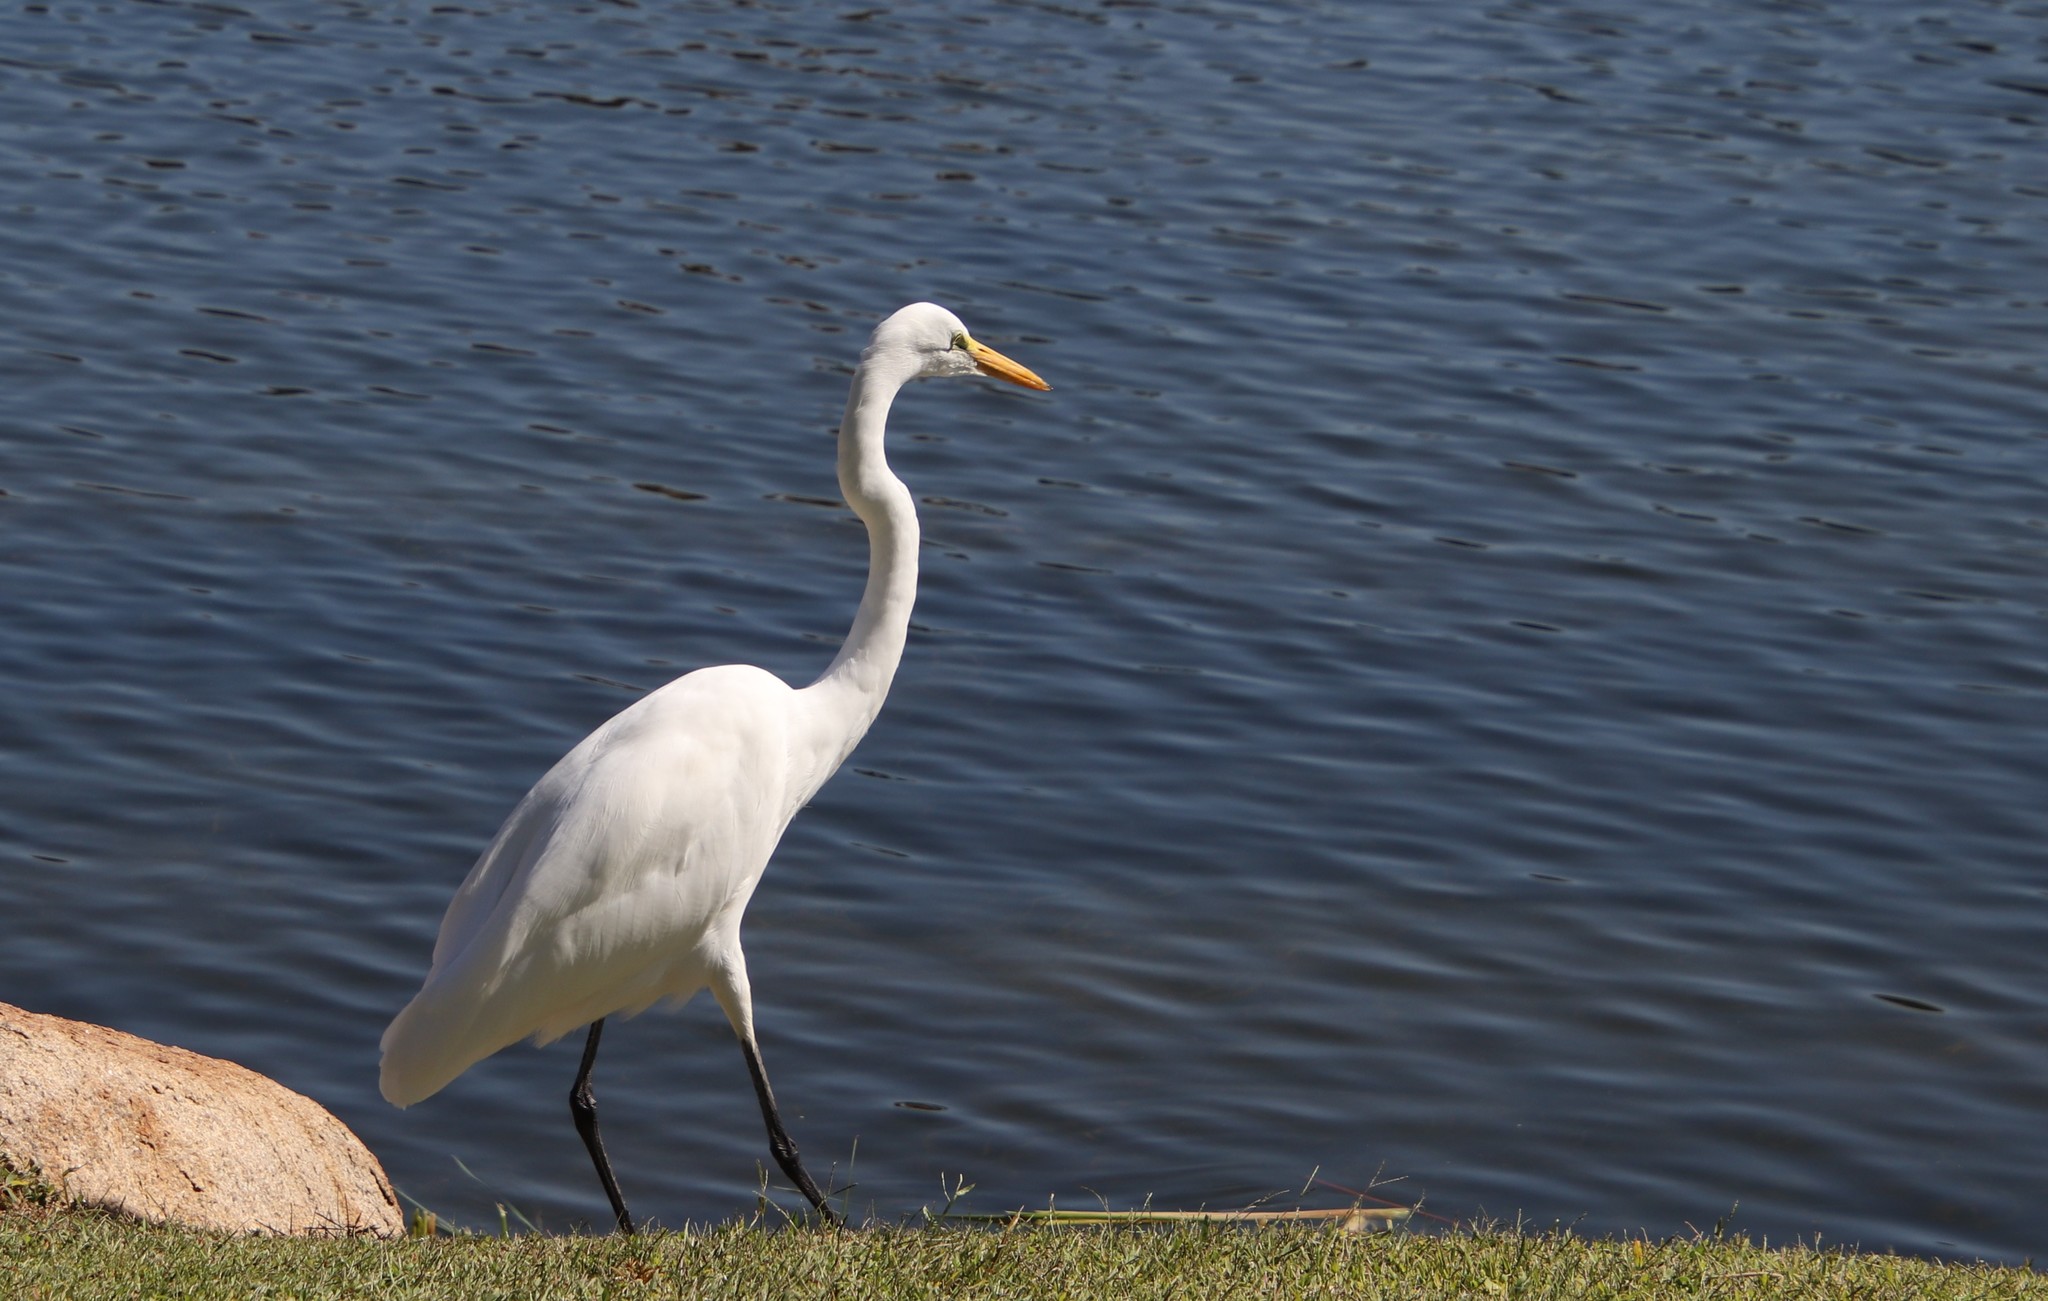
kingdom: Animalia
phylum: Chordata
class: Aves
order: Pelecaniformes
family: Ardeidae
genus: Ardea
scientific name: Ardea alba
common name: Great egret
